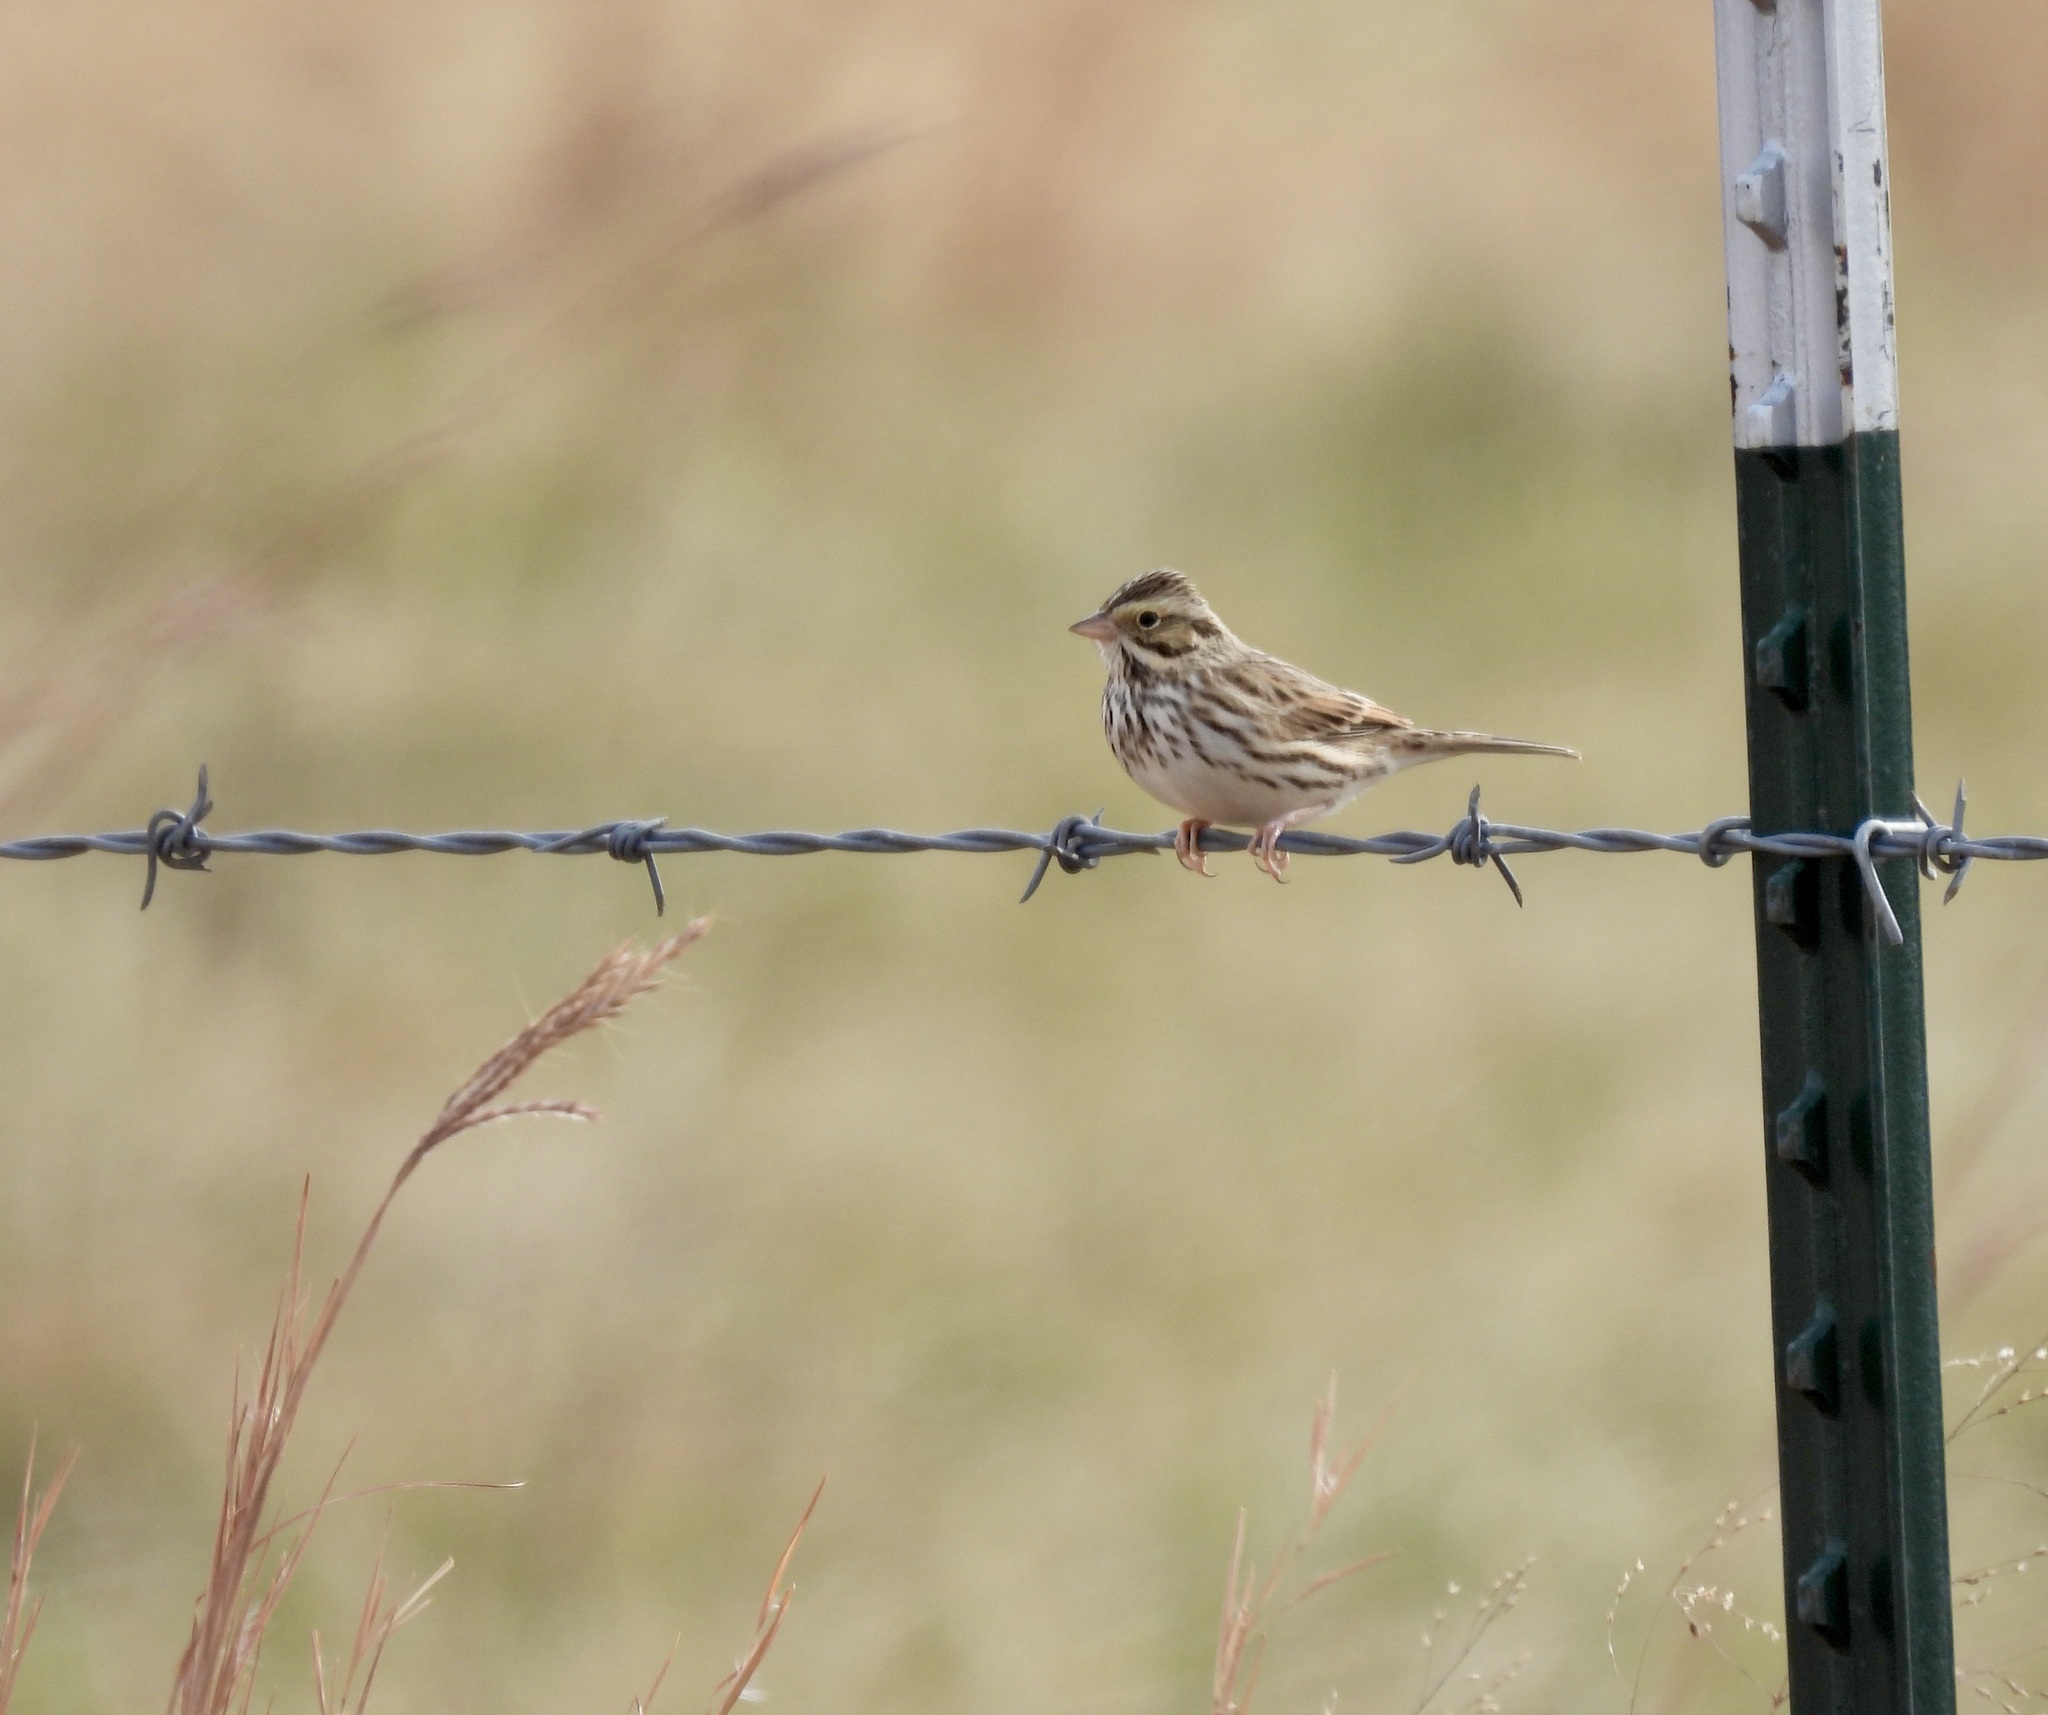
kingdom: Animalia
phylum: Chordata
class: Aves
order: Passeriformes
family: Passerellidae
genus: Passerculus
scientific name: Passerculus sandwichensis
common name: Savannah sparrow
